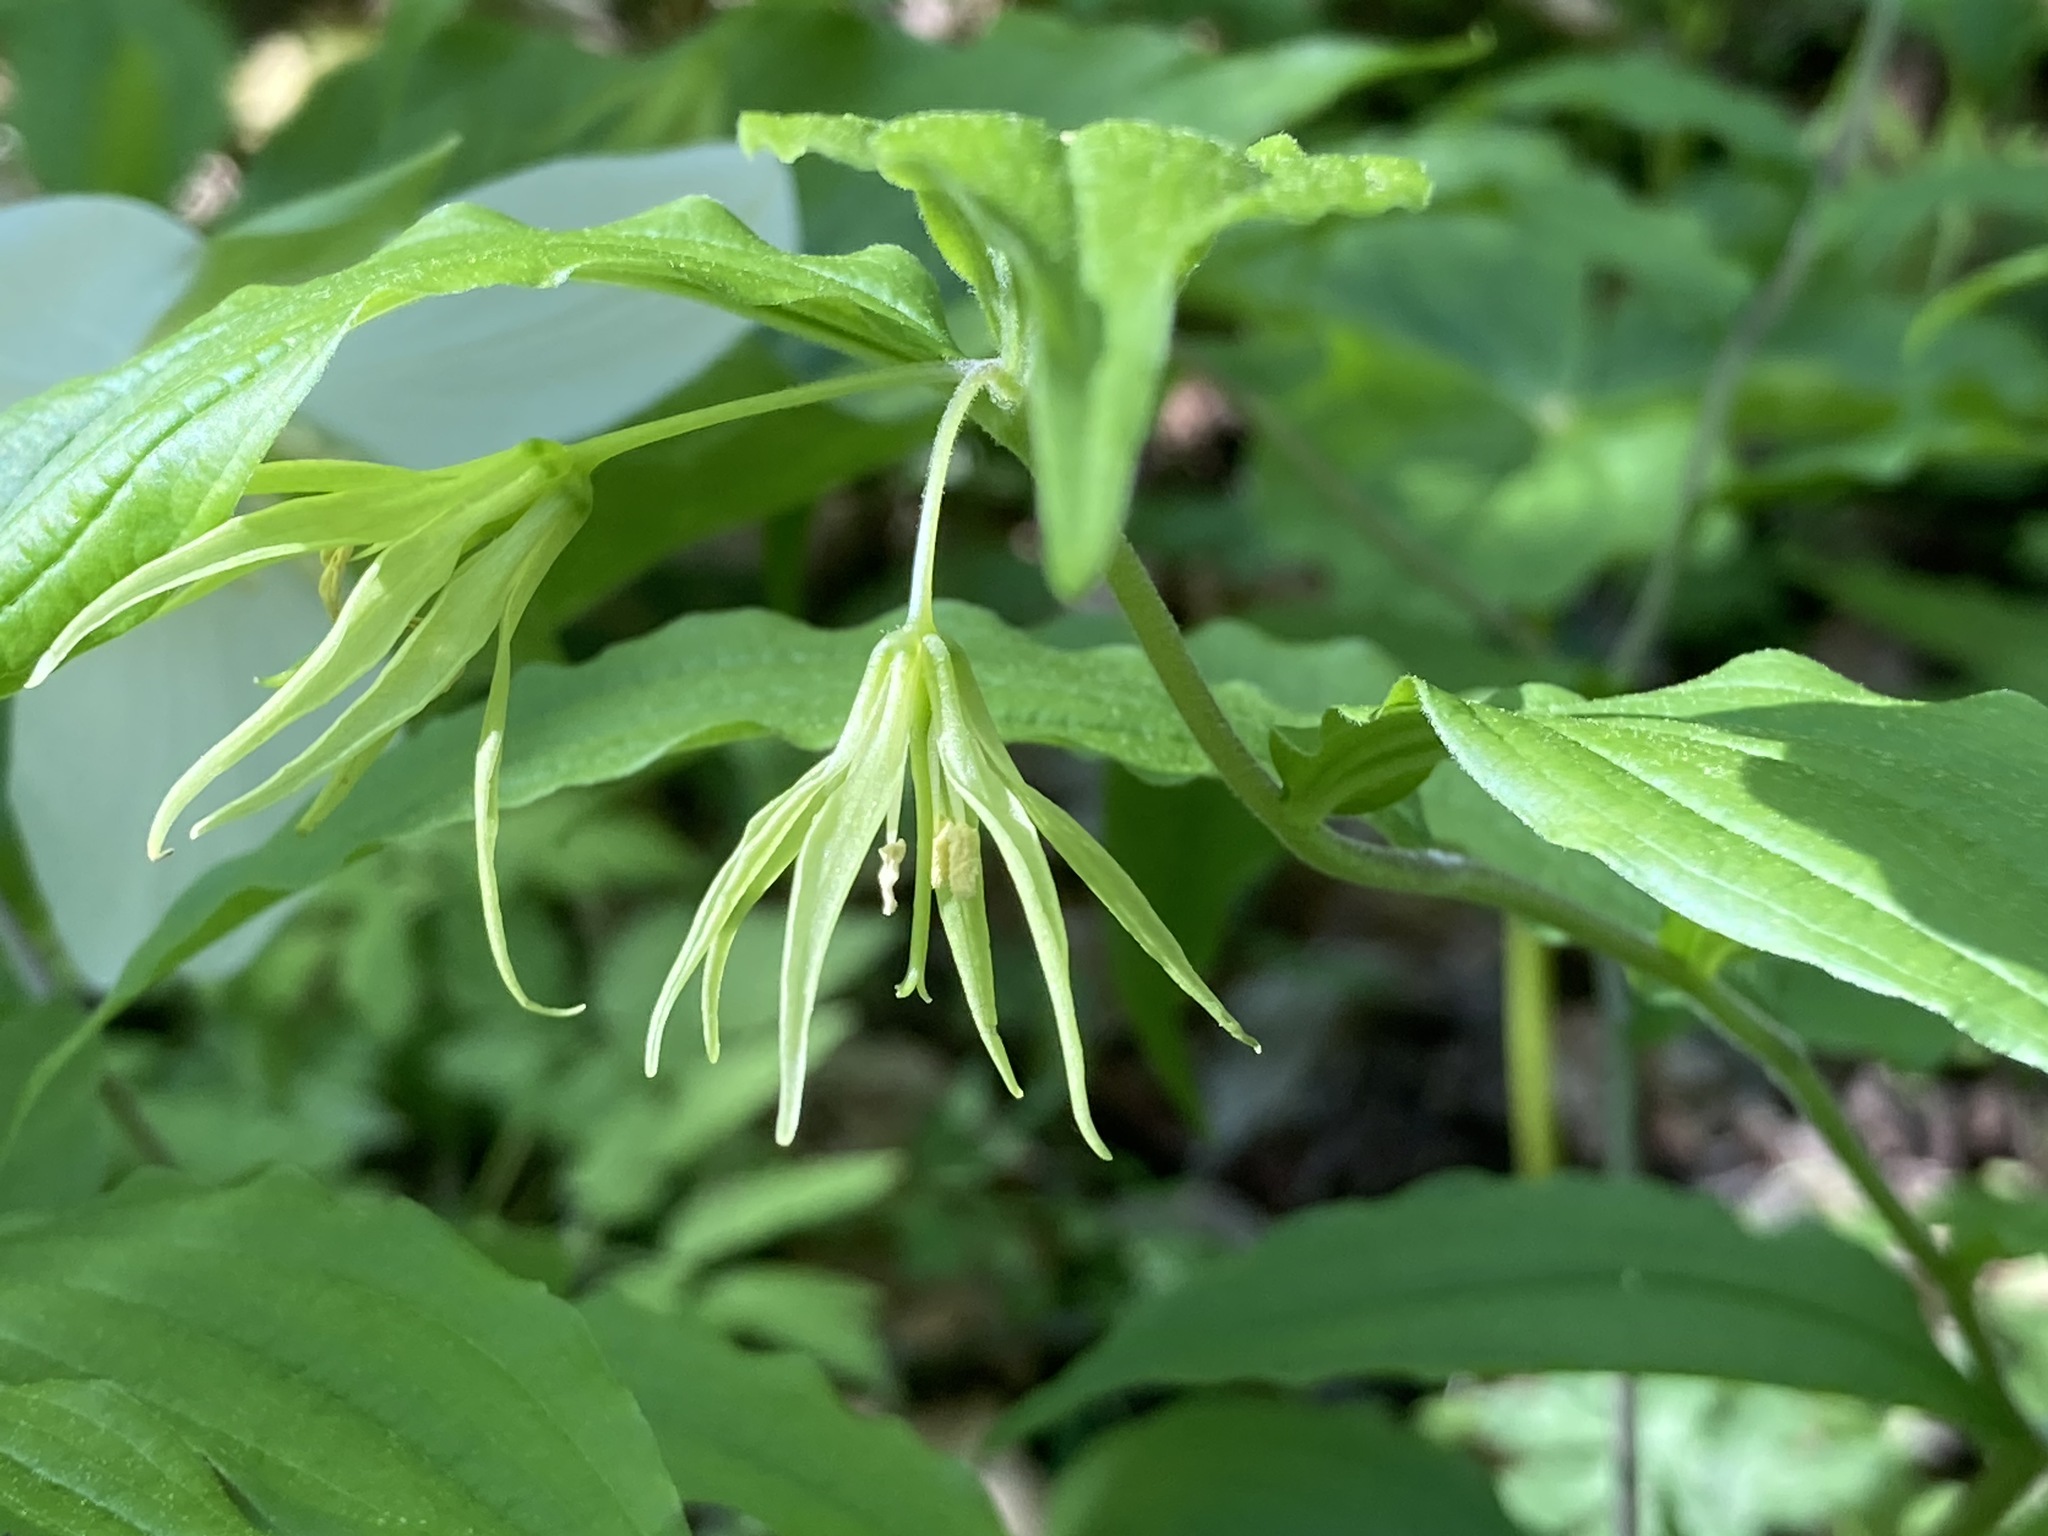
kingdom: Plantae
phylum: Tracheophyta
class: Liliopsida
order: Liliales
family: Liliaceae
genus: Prosartes
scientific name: Prosartes lanuginosa
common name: Hairy mandarin
